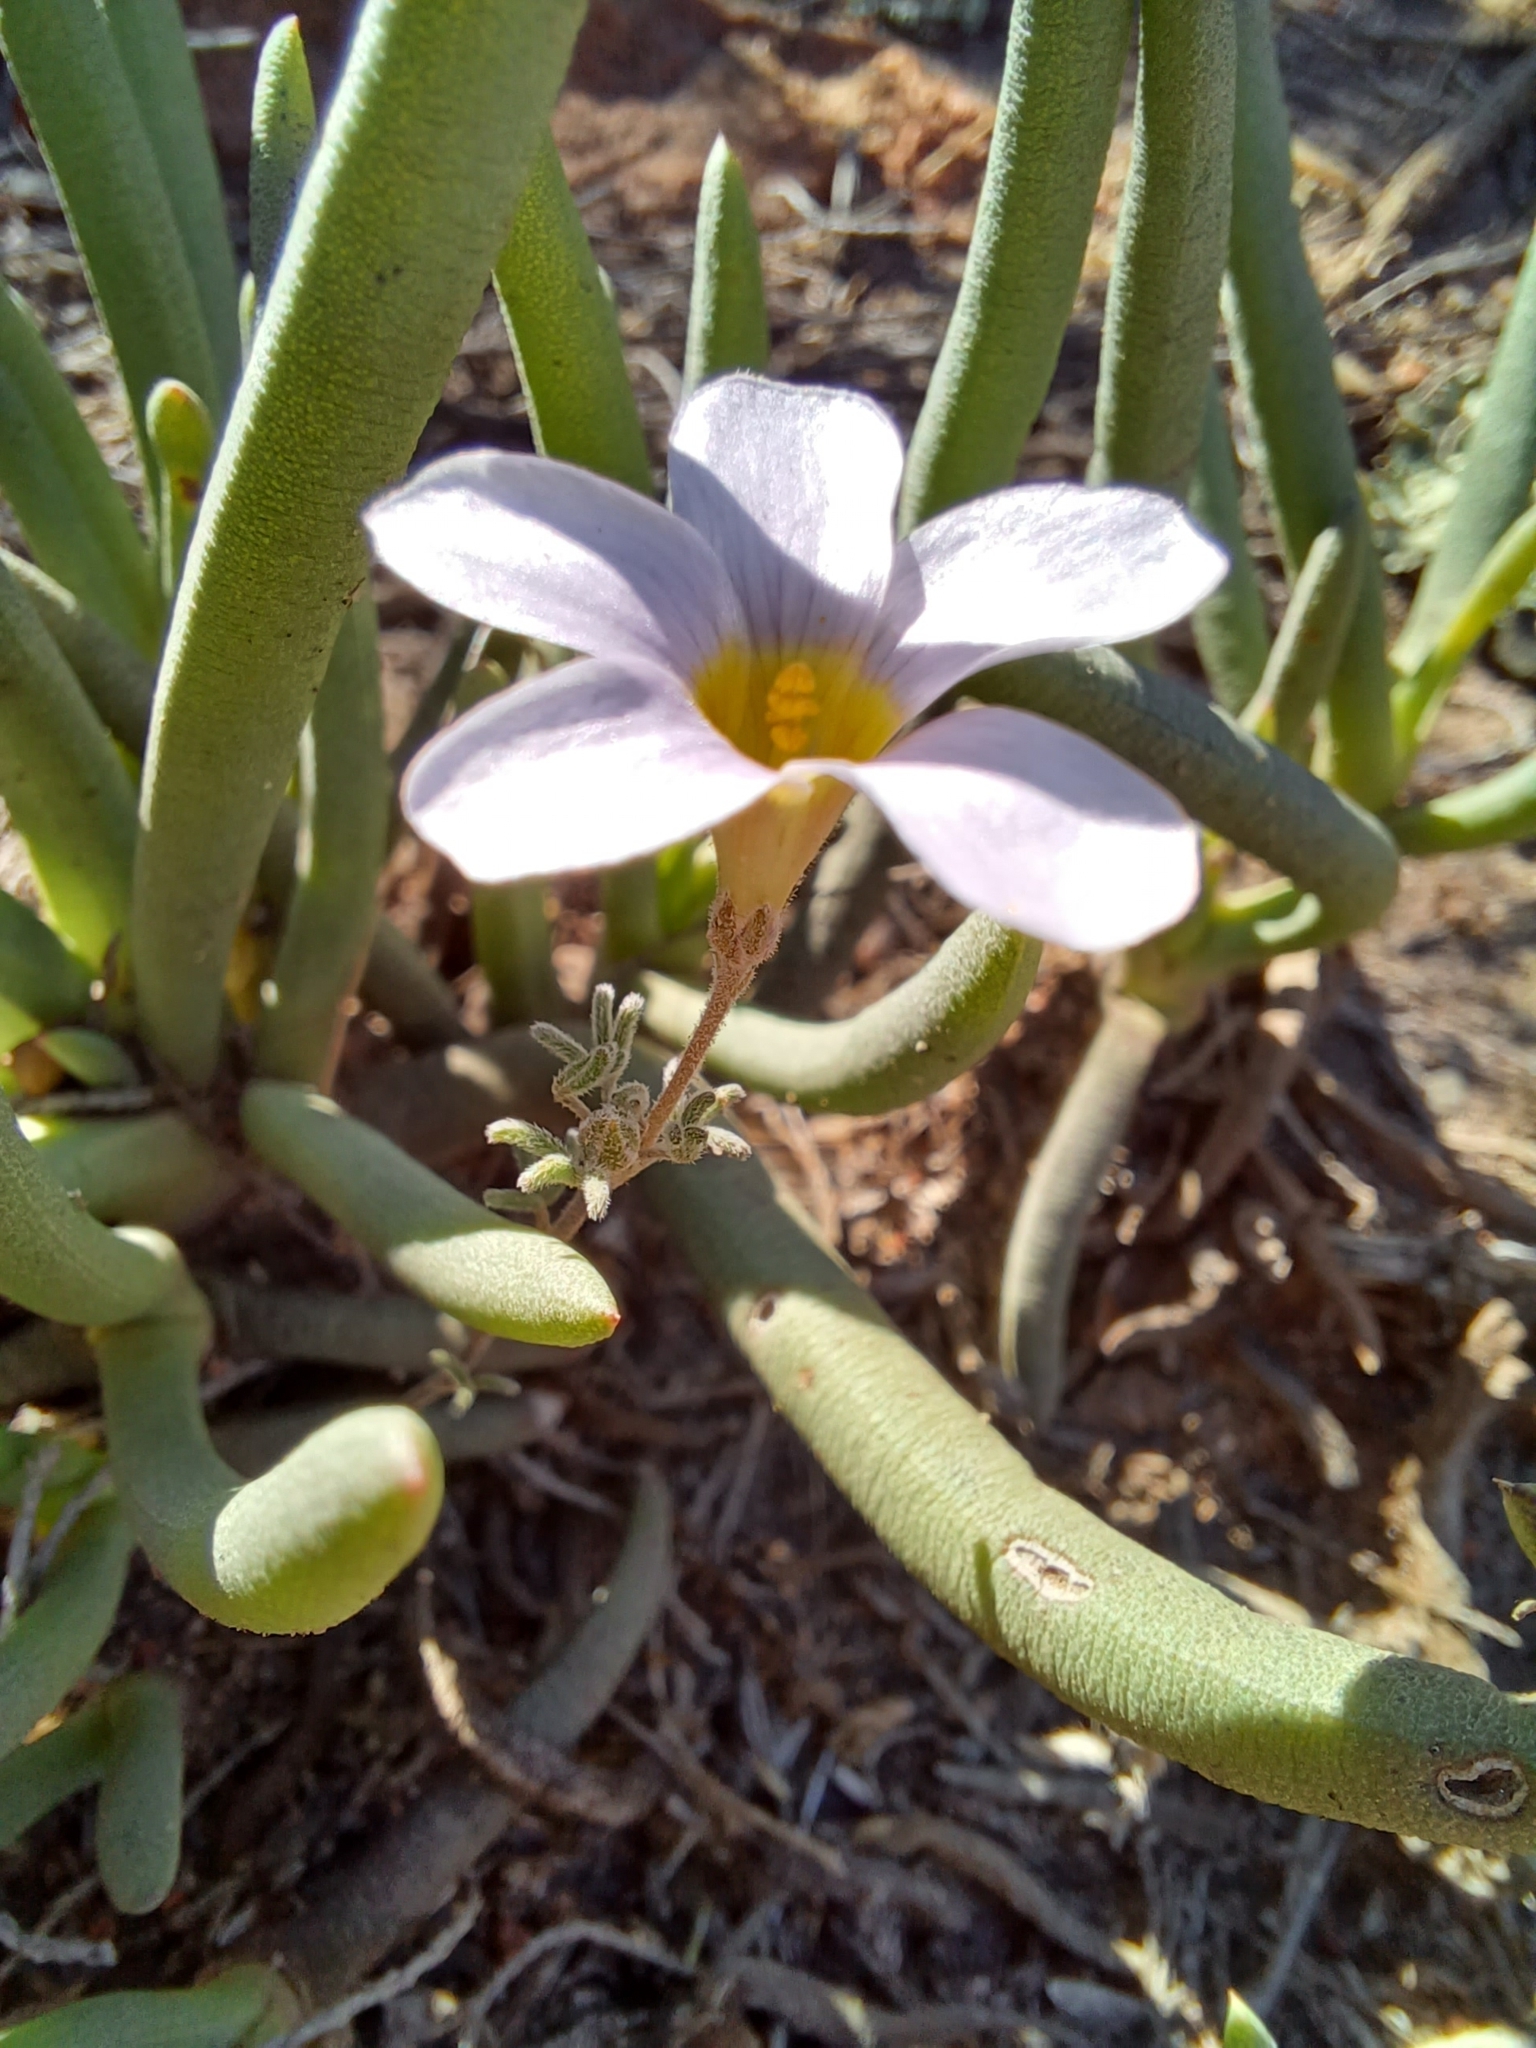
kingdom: Plantae
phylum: Tracheophyta
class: Magnoliopsida
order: Oxalidales
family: Oxalidaceae
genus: Oxalis
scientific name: Oxalis ciliaris
